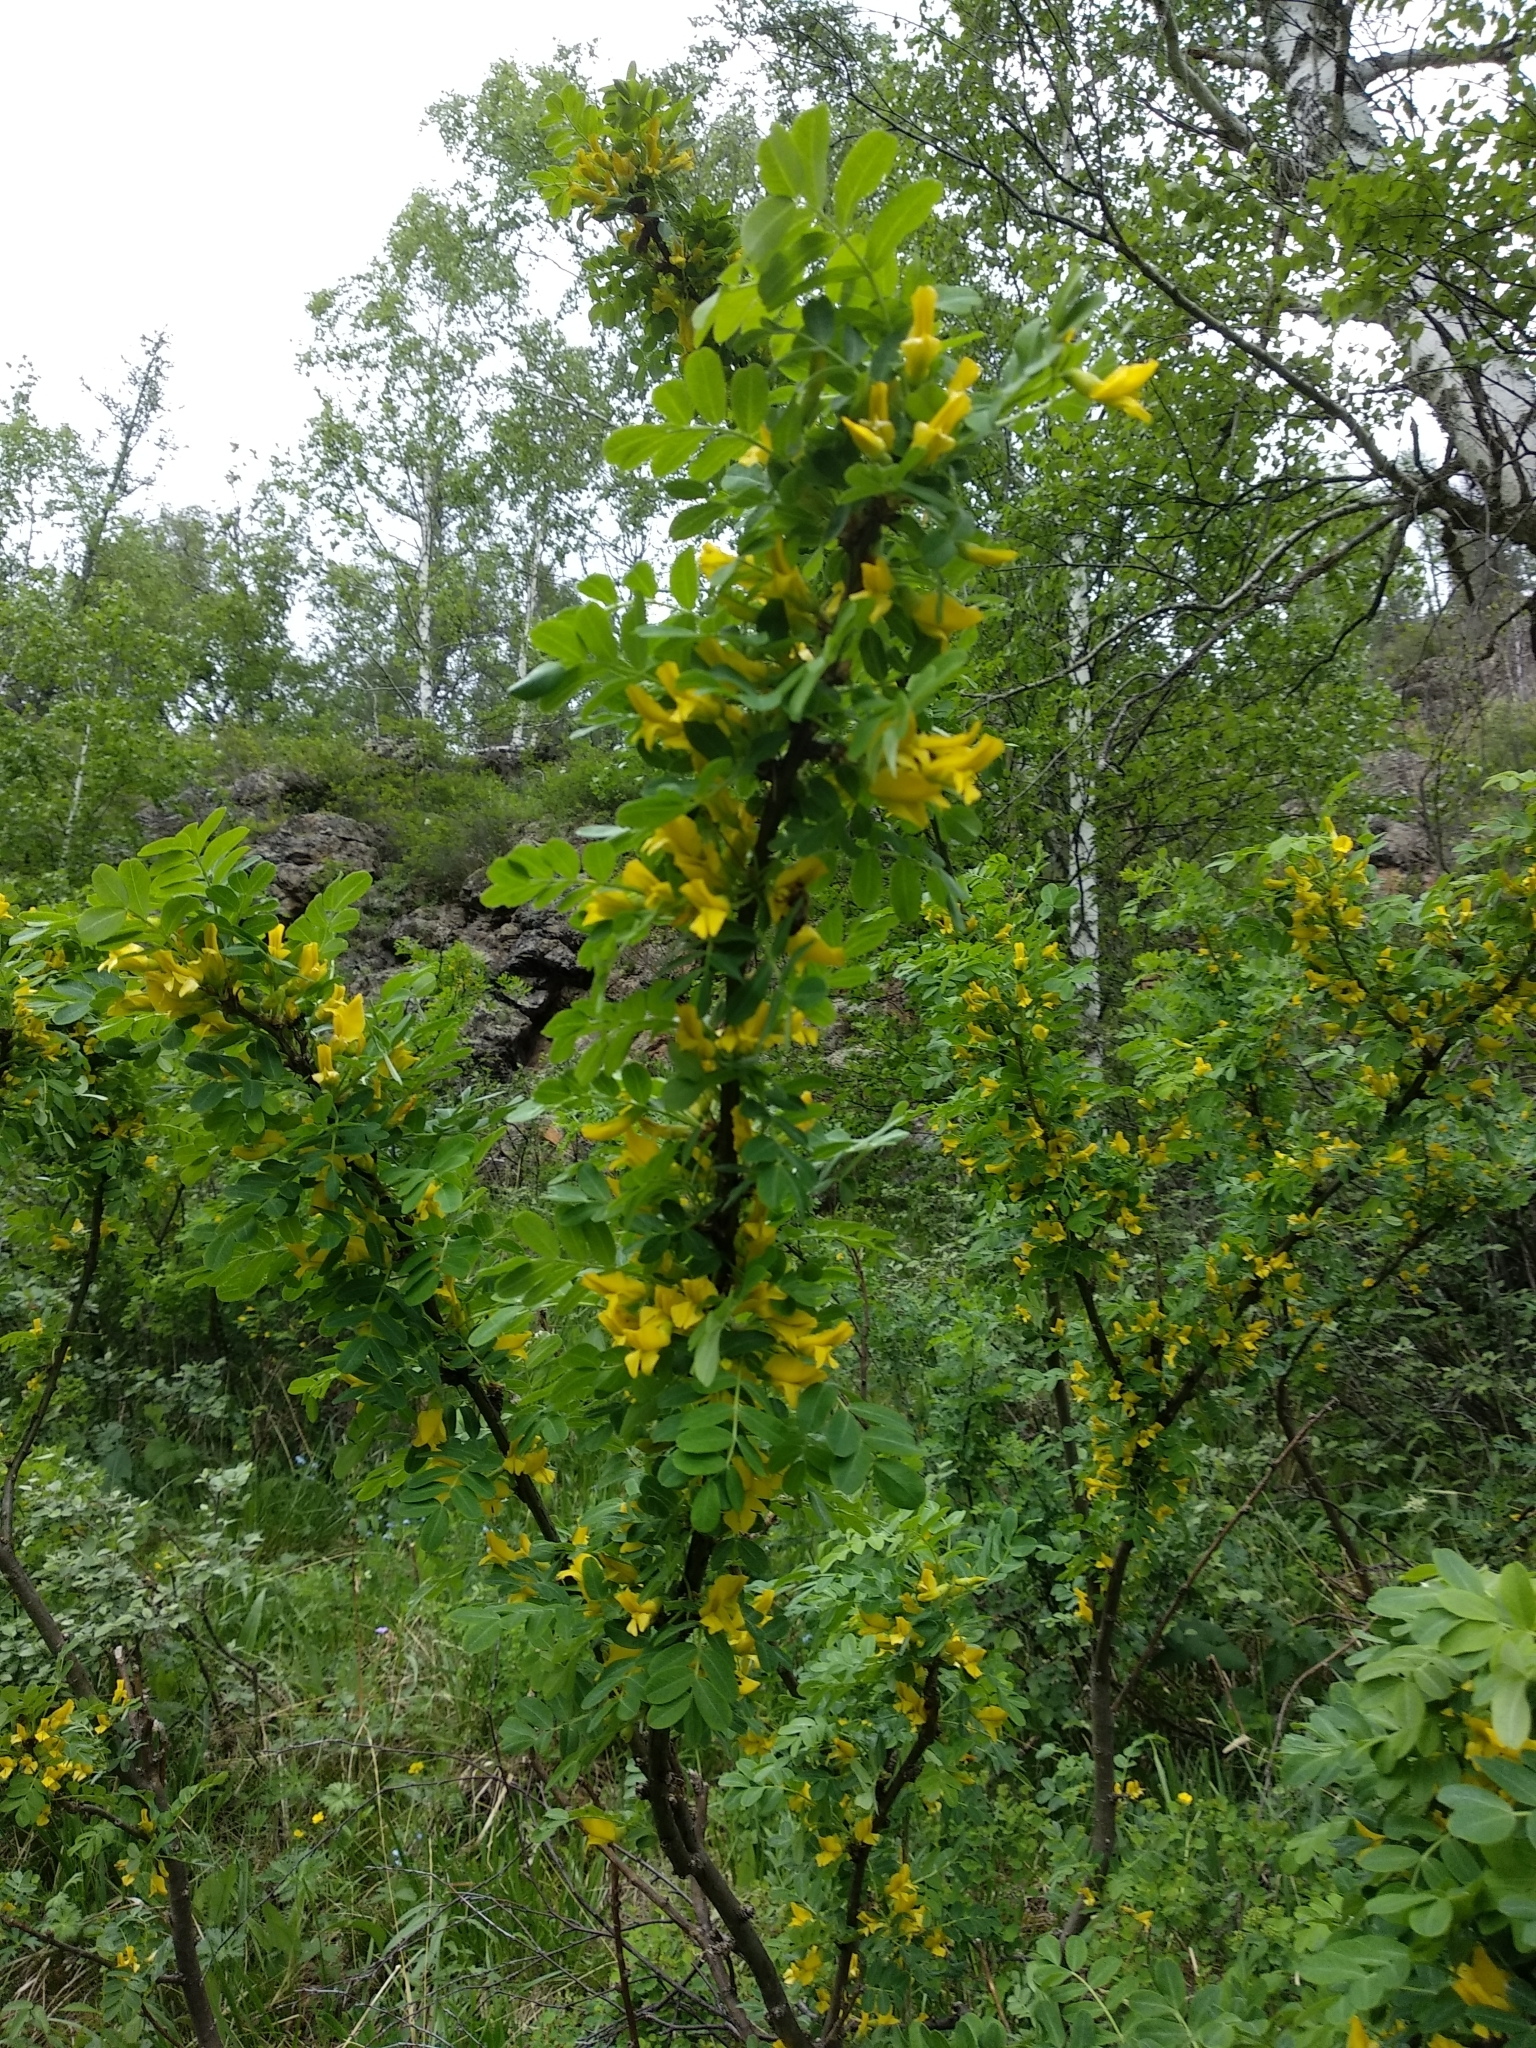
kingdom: Plantae
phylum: Tracheophyta
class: Magnoliopsida
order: Fabales
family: Fabaceae
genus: Caragana
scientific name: Caragana arborescens
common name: Siberian peashrub
